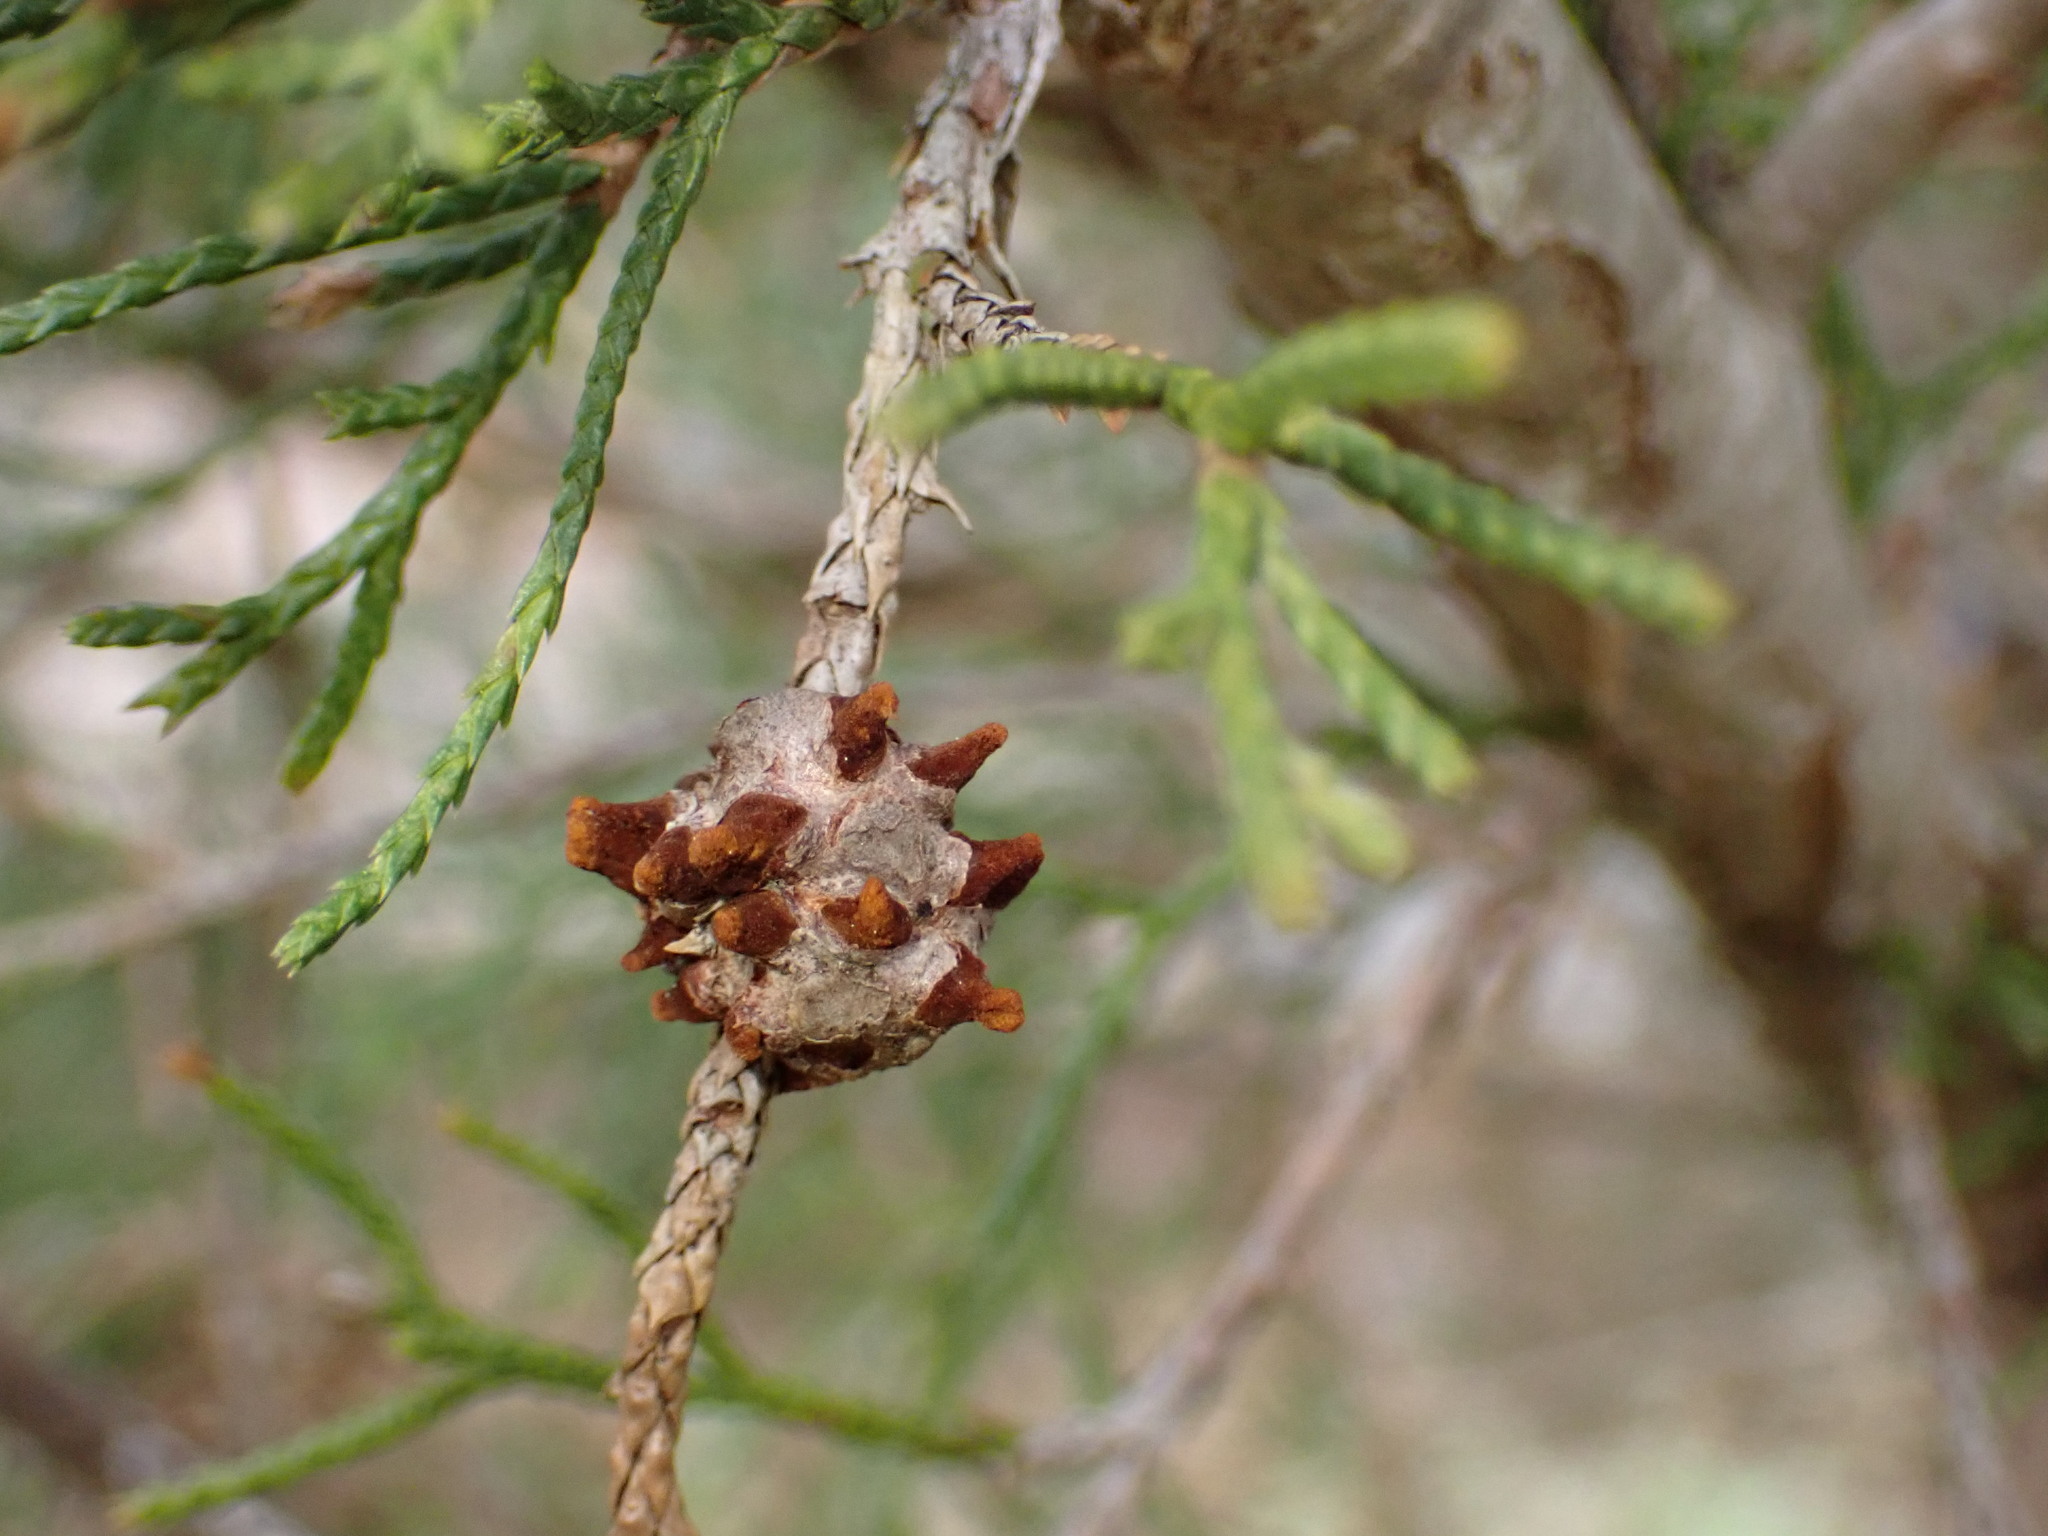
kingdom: Fungi
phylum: Basidiomycota
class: Pucciniomycetes
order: Pucciniales
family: Gymnosporangiaceae
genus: Gymnosporangium
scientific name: Gymnosporangium juniperi-virginianae
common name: Juniper-apple rust
